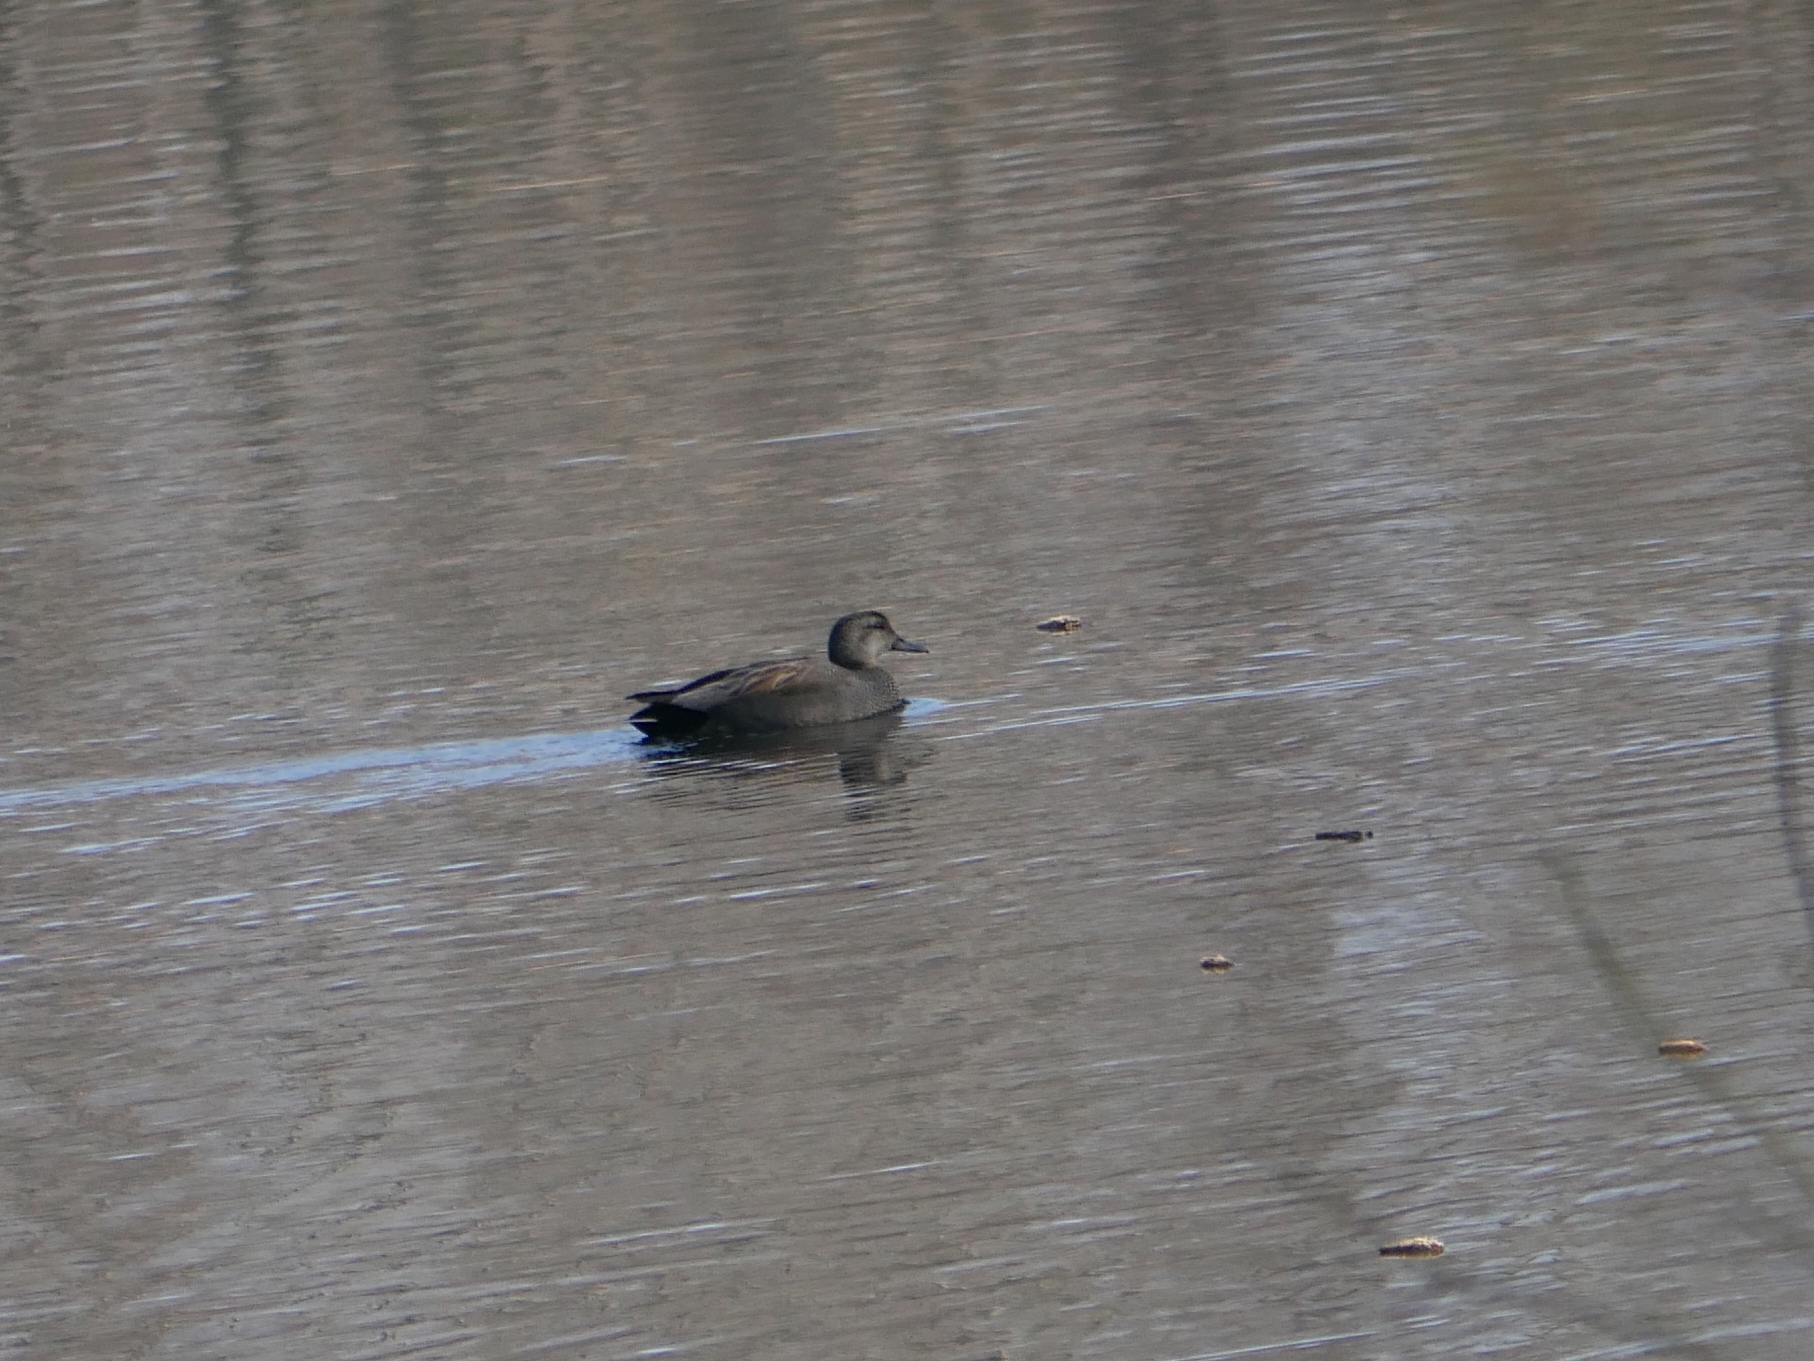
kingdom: Animalia
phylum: Chordata
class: Aves
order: Anseriformes
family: Anatidae
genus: Mareca
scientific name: Mareca strepera
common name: Gadwall
